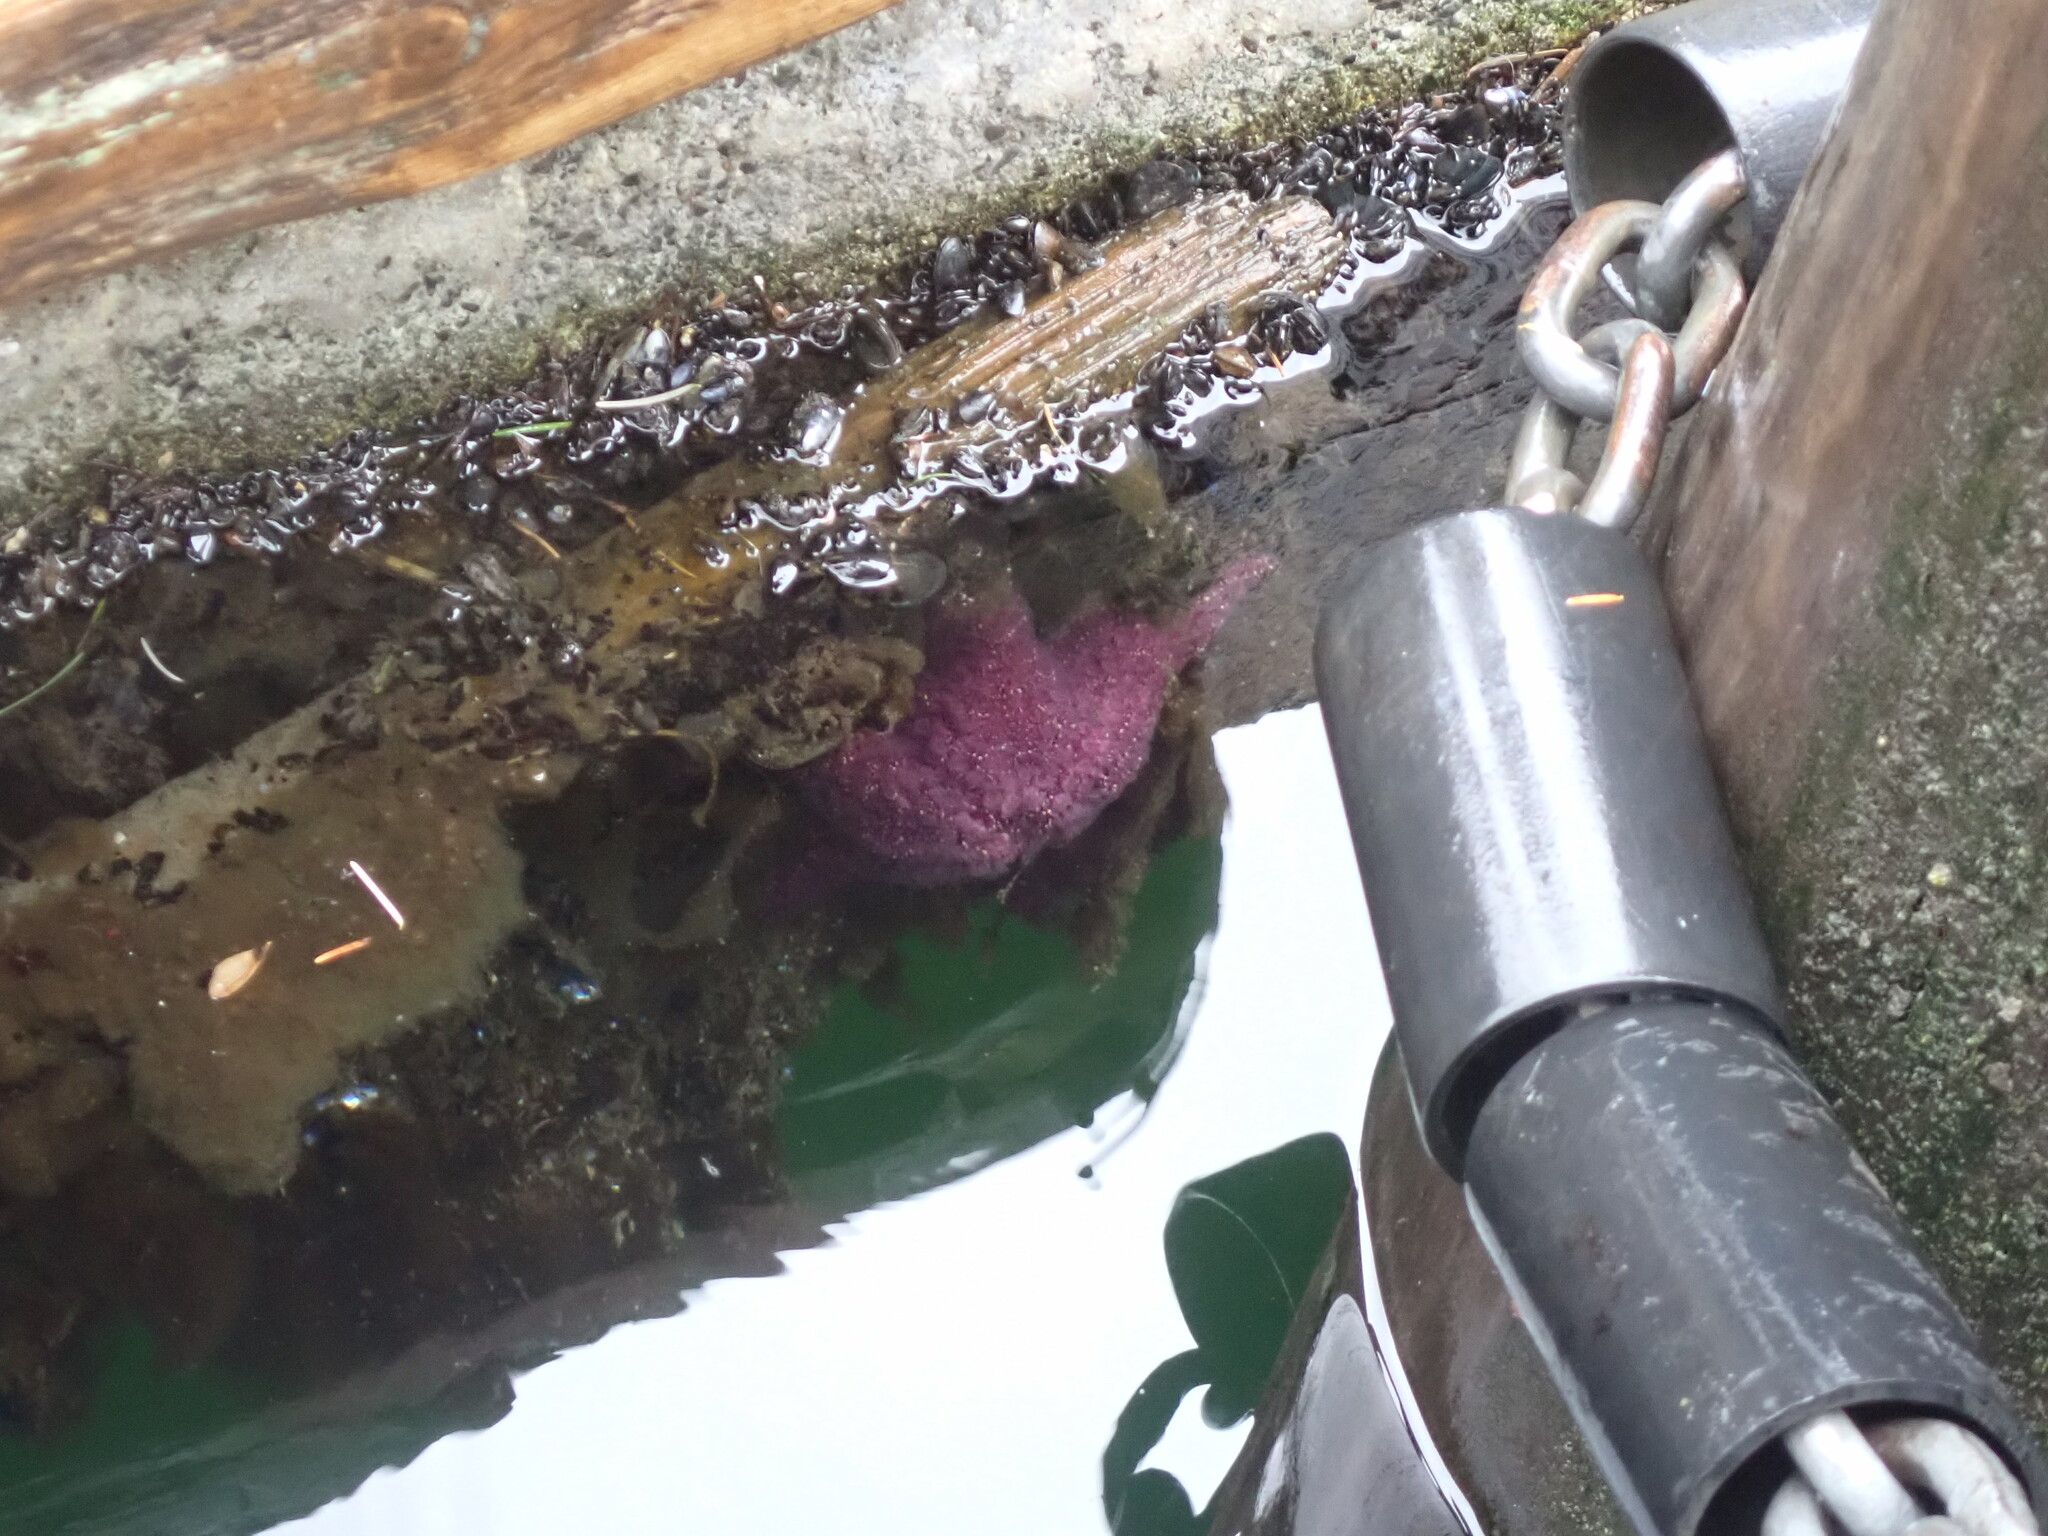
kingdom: Animalia
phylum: Echinodermata
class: Asteroidea
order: Forcipulatida
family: Asteriidae
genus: Pisaster
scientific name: Pisaster ochraceus
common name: Ochre stars
